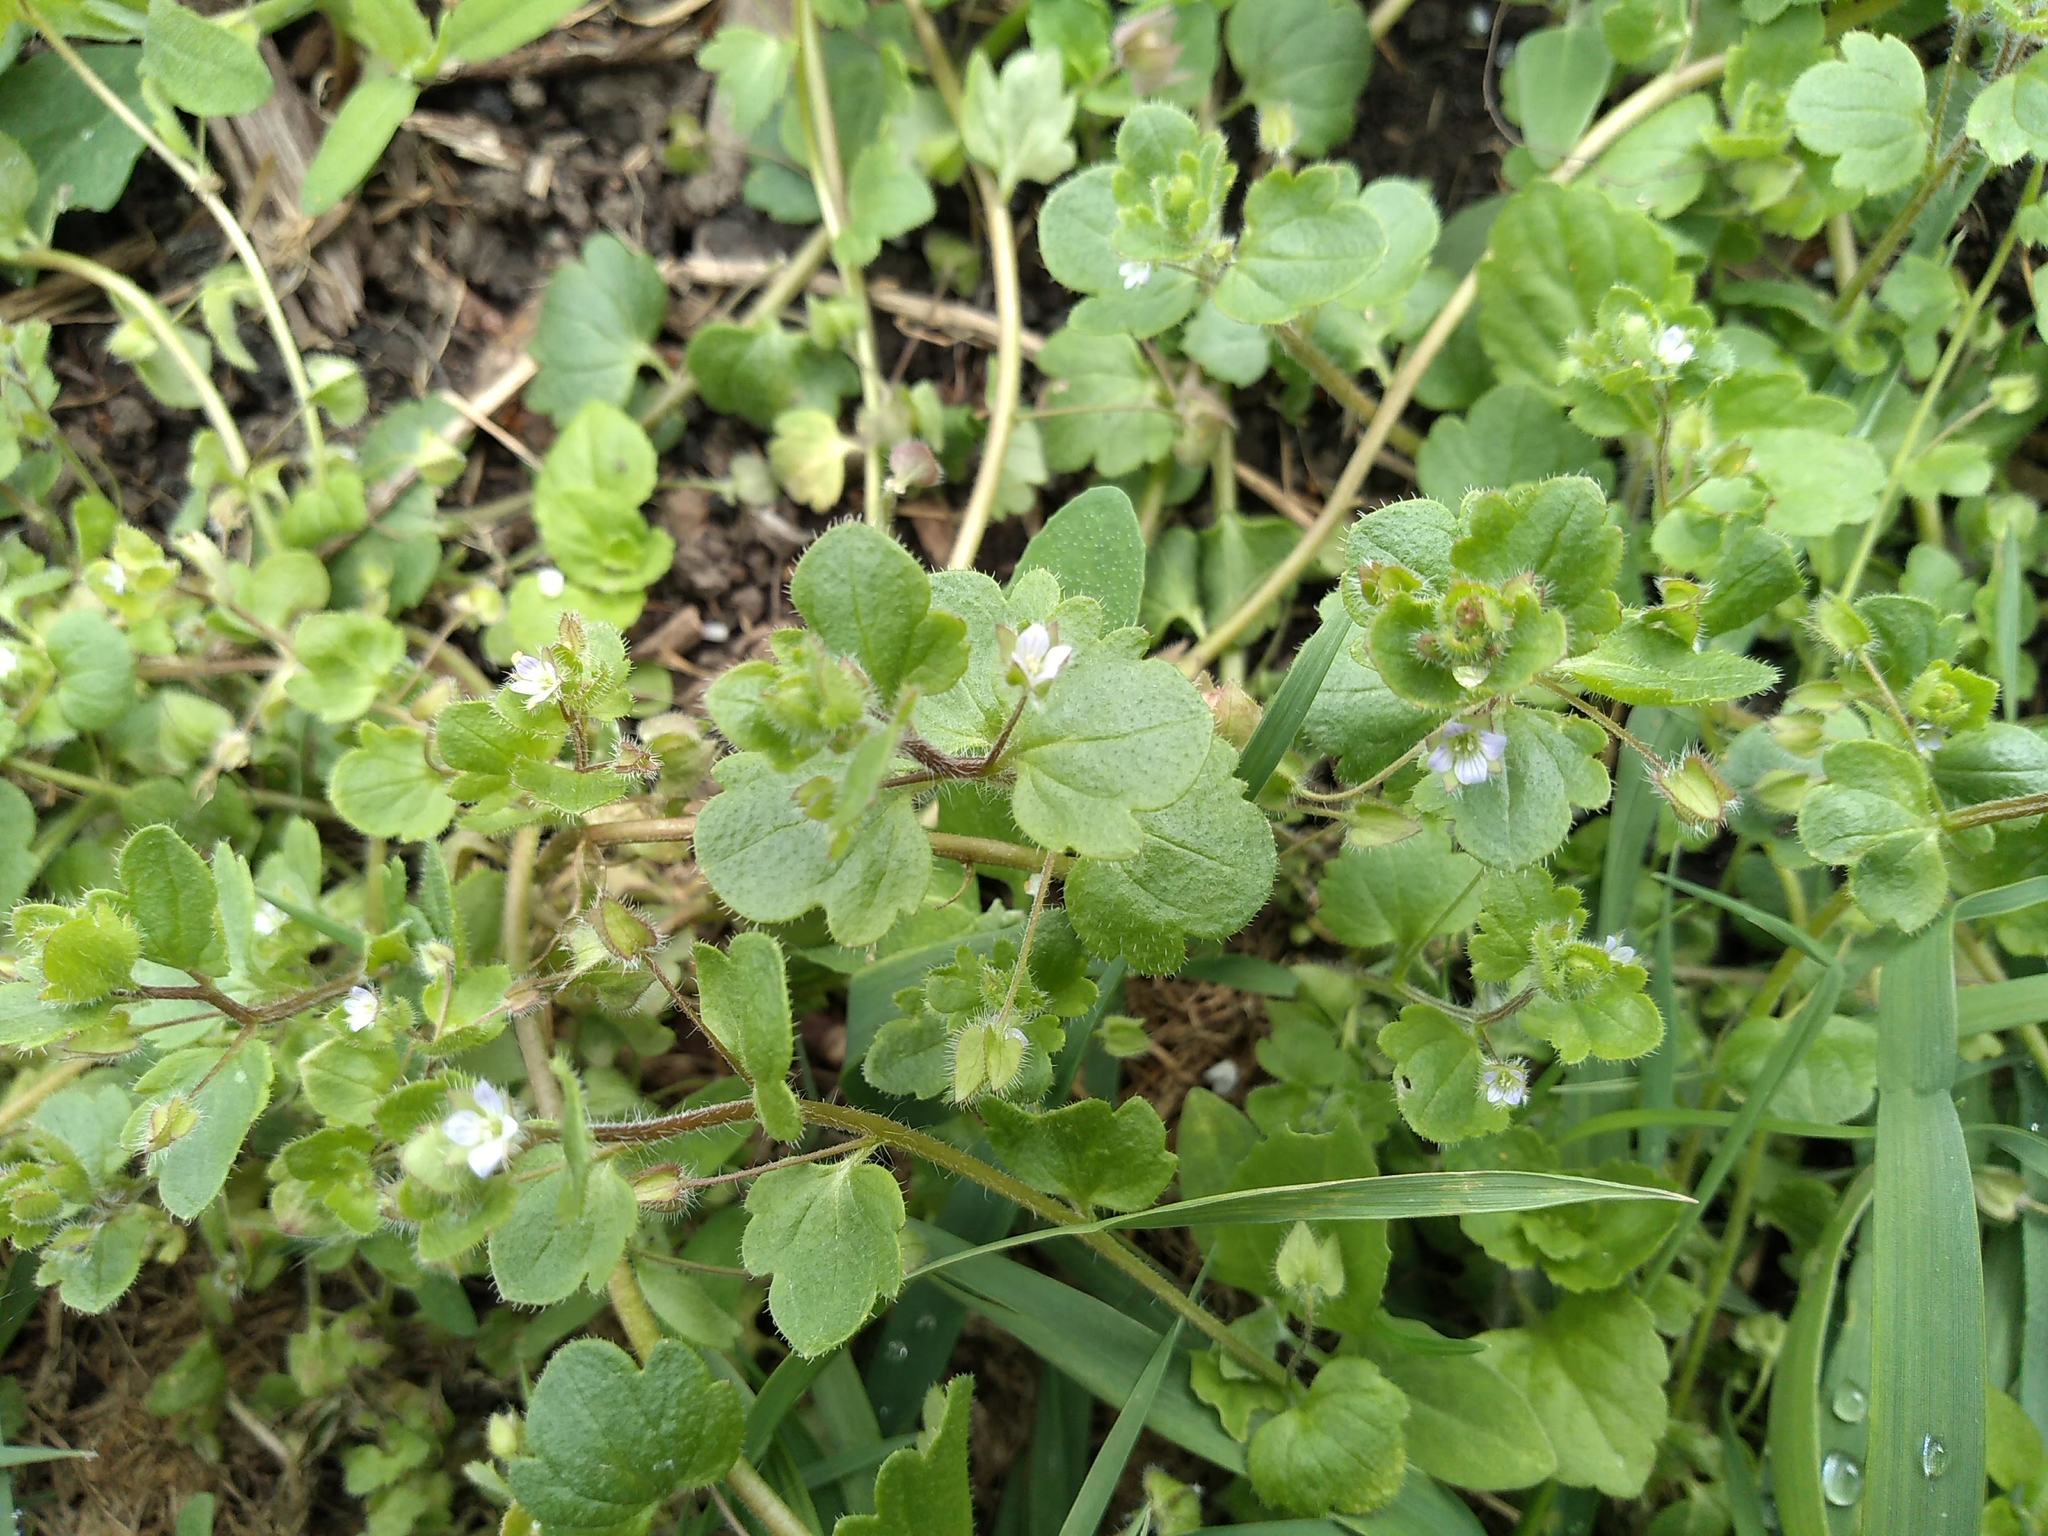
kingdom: Plantae
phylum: Tracheophyta
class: Magnoliopsida
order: Lamiales
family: Plantaginaceae
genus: Veronica
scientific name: Veronica sublobata
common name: False ivy-leaved speedwell
